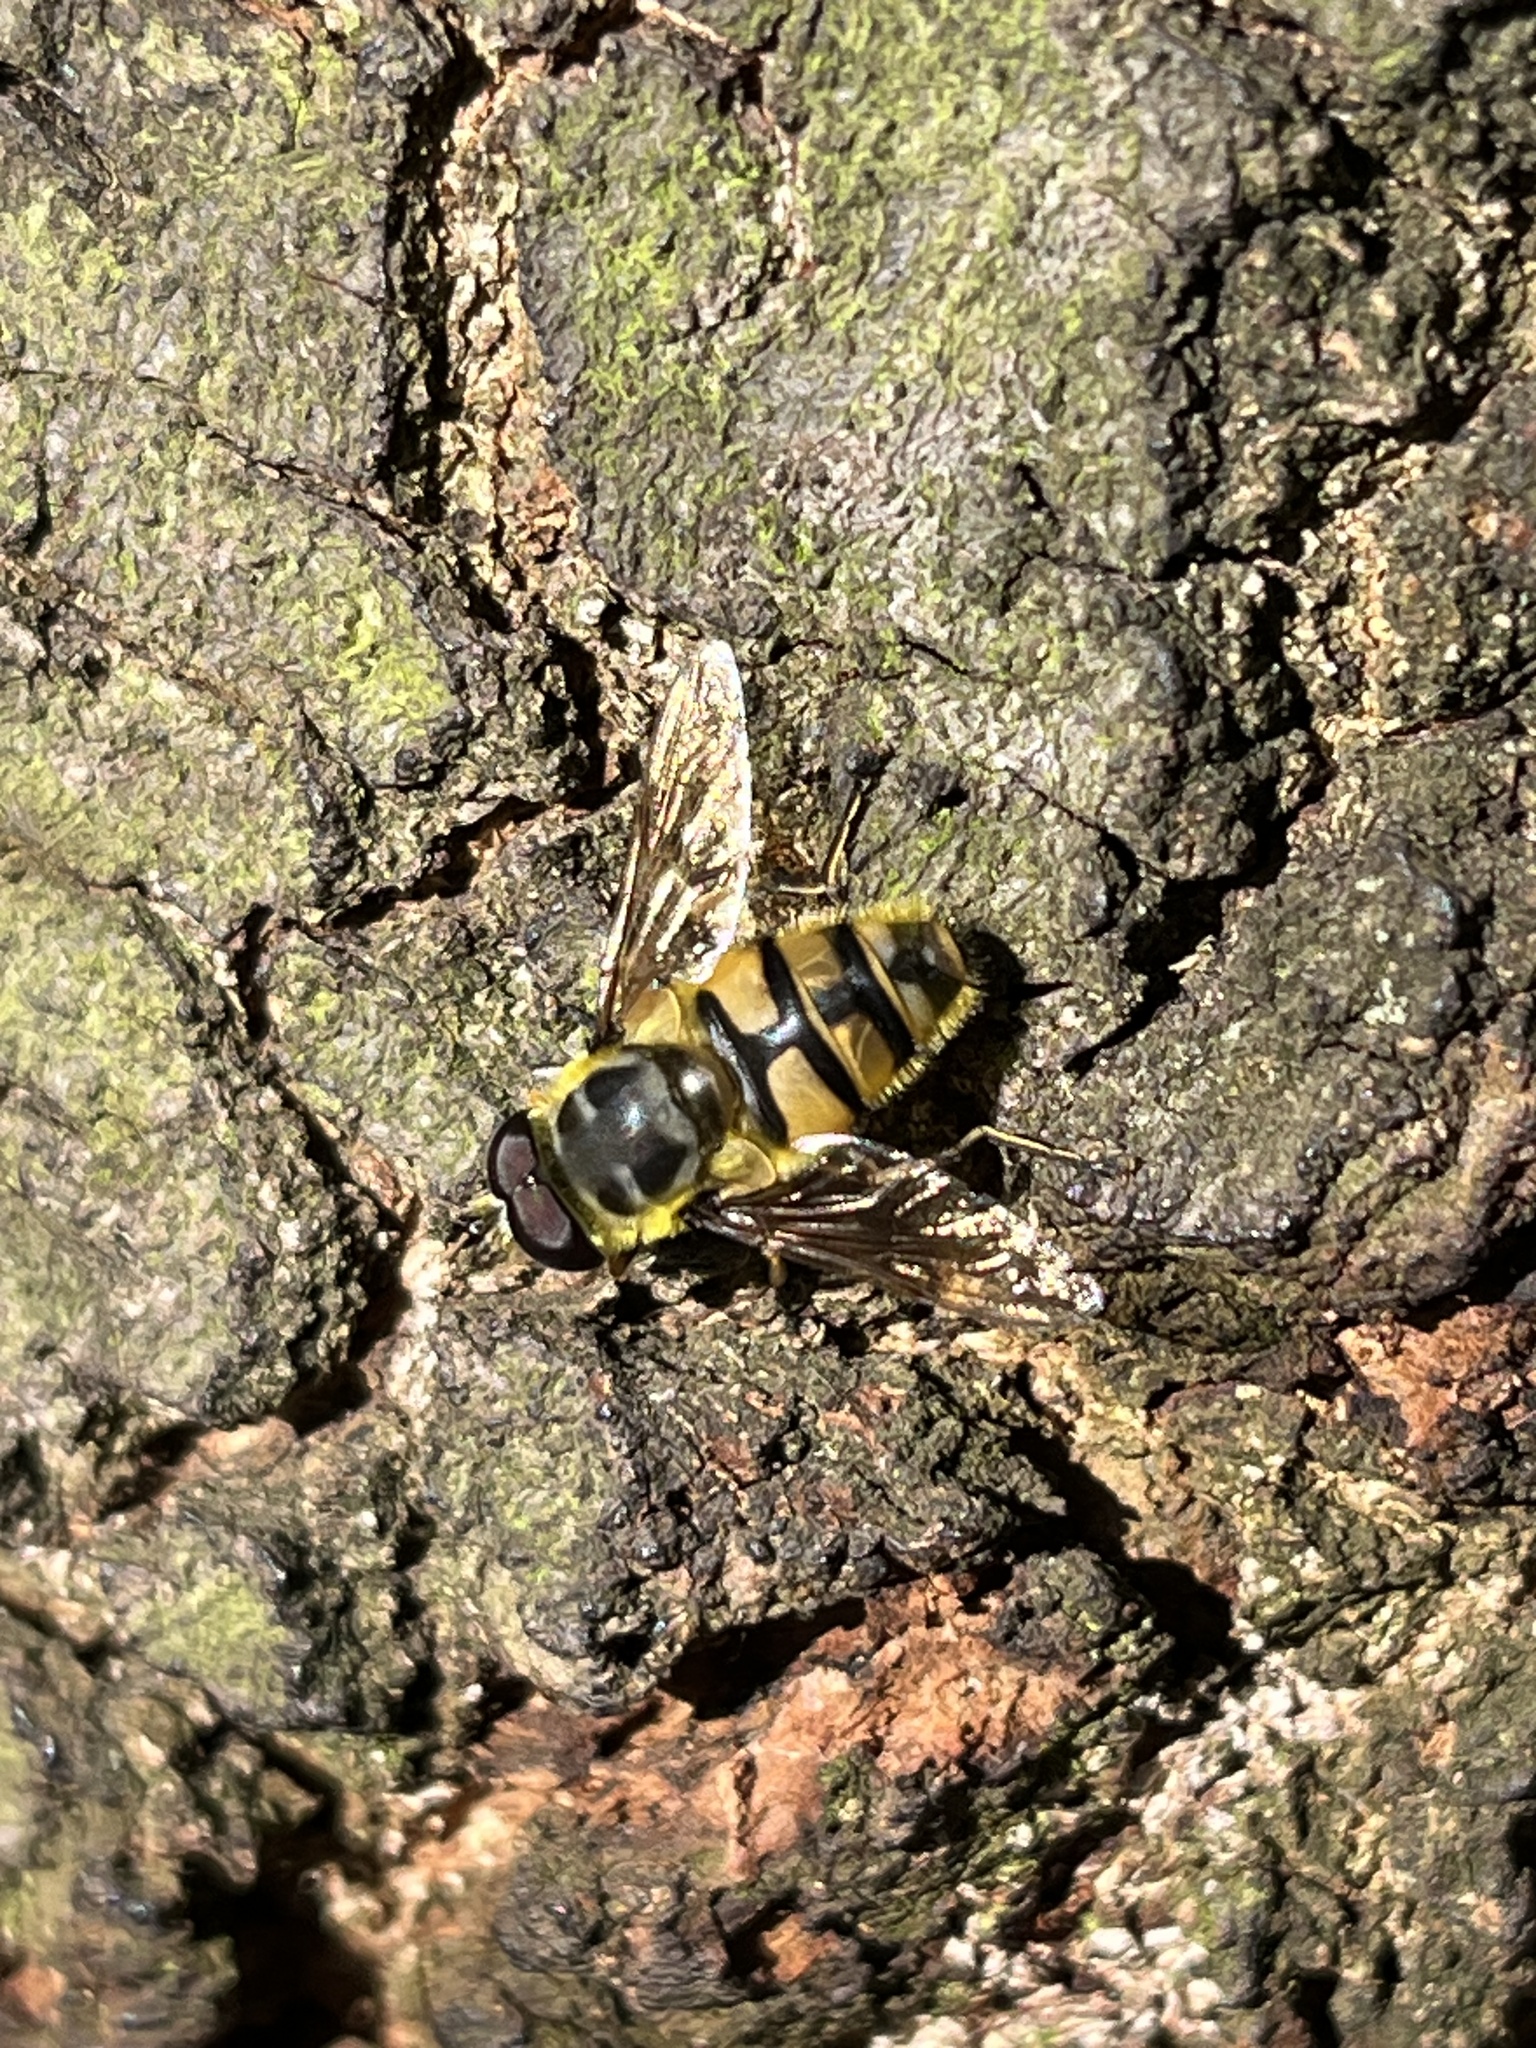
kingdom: Animalia
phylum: Arthropoda
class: Insecta
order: Diptera
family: Syrphidae
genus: Myathropa
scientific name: Myathropa florea
